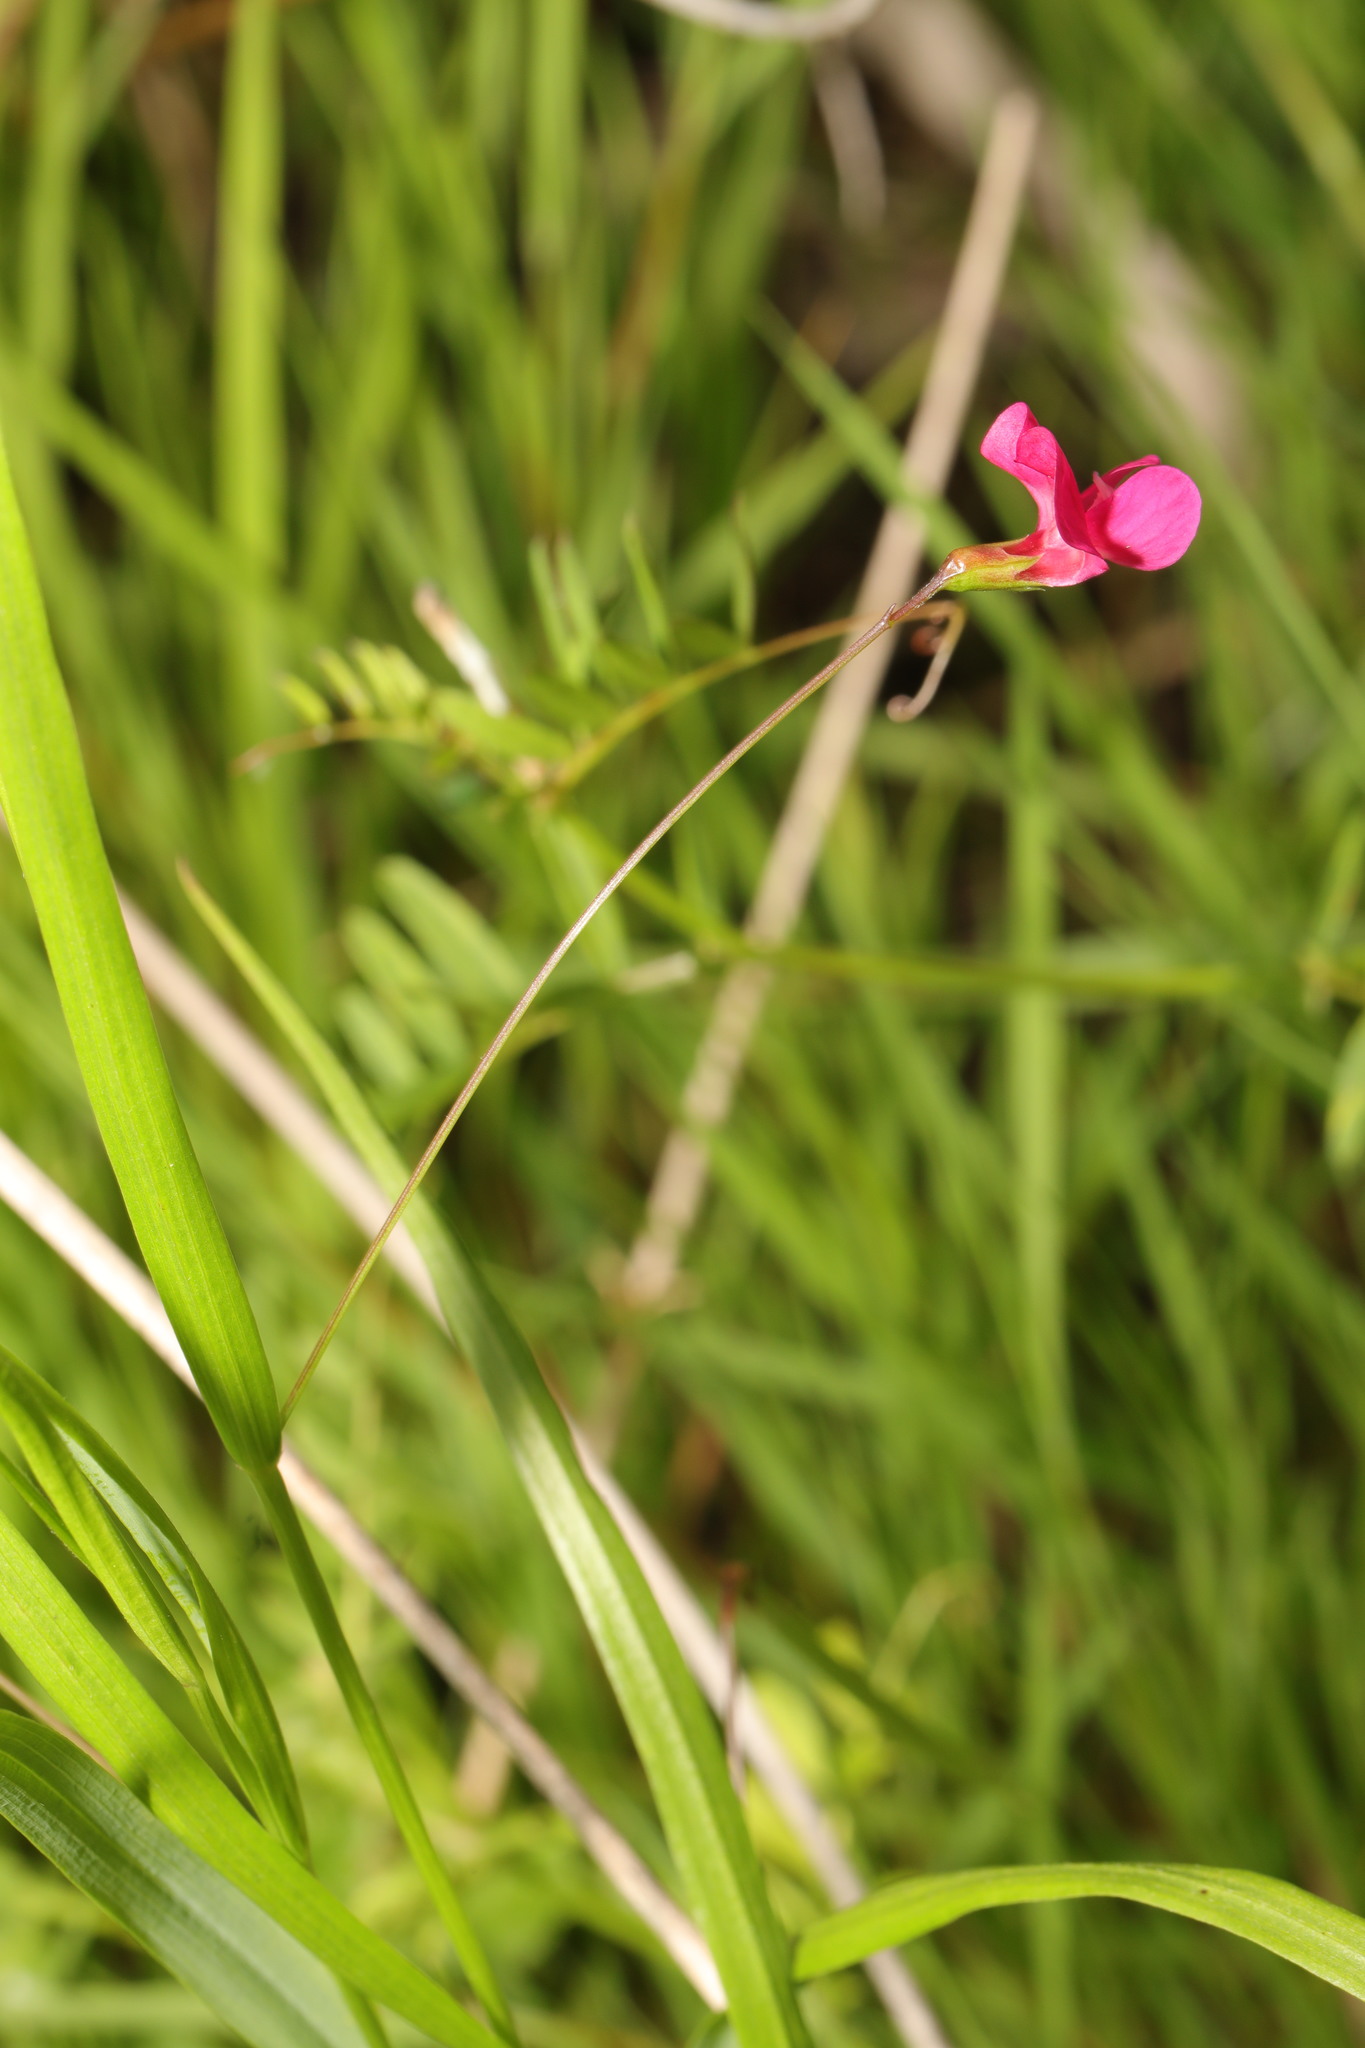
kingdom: Plantae
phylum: Tracheophyta
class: Magnoliopsida
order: Fabales
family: Fabaceae
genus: Lathyrus
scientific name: Lathyrus nissolia
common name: Grass vetchling
